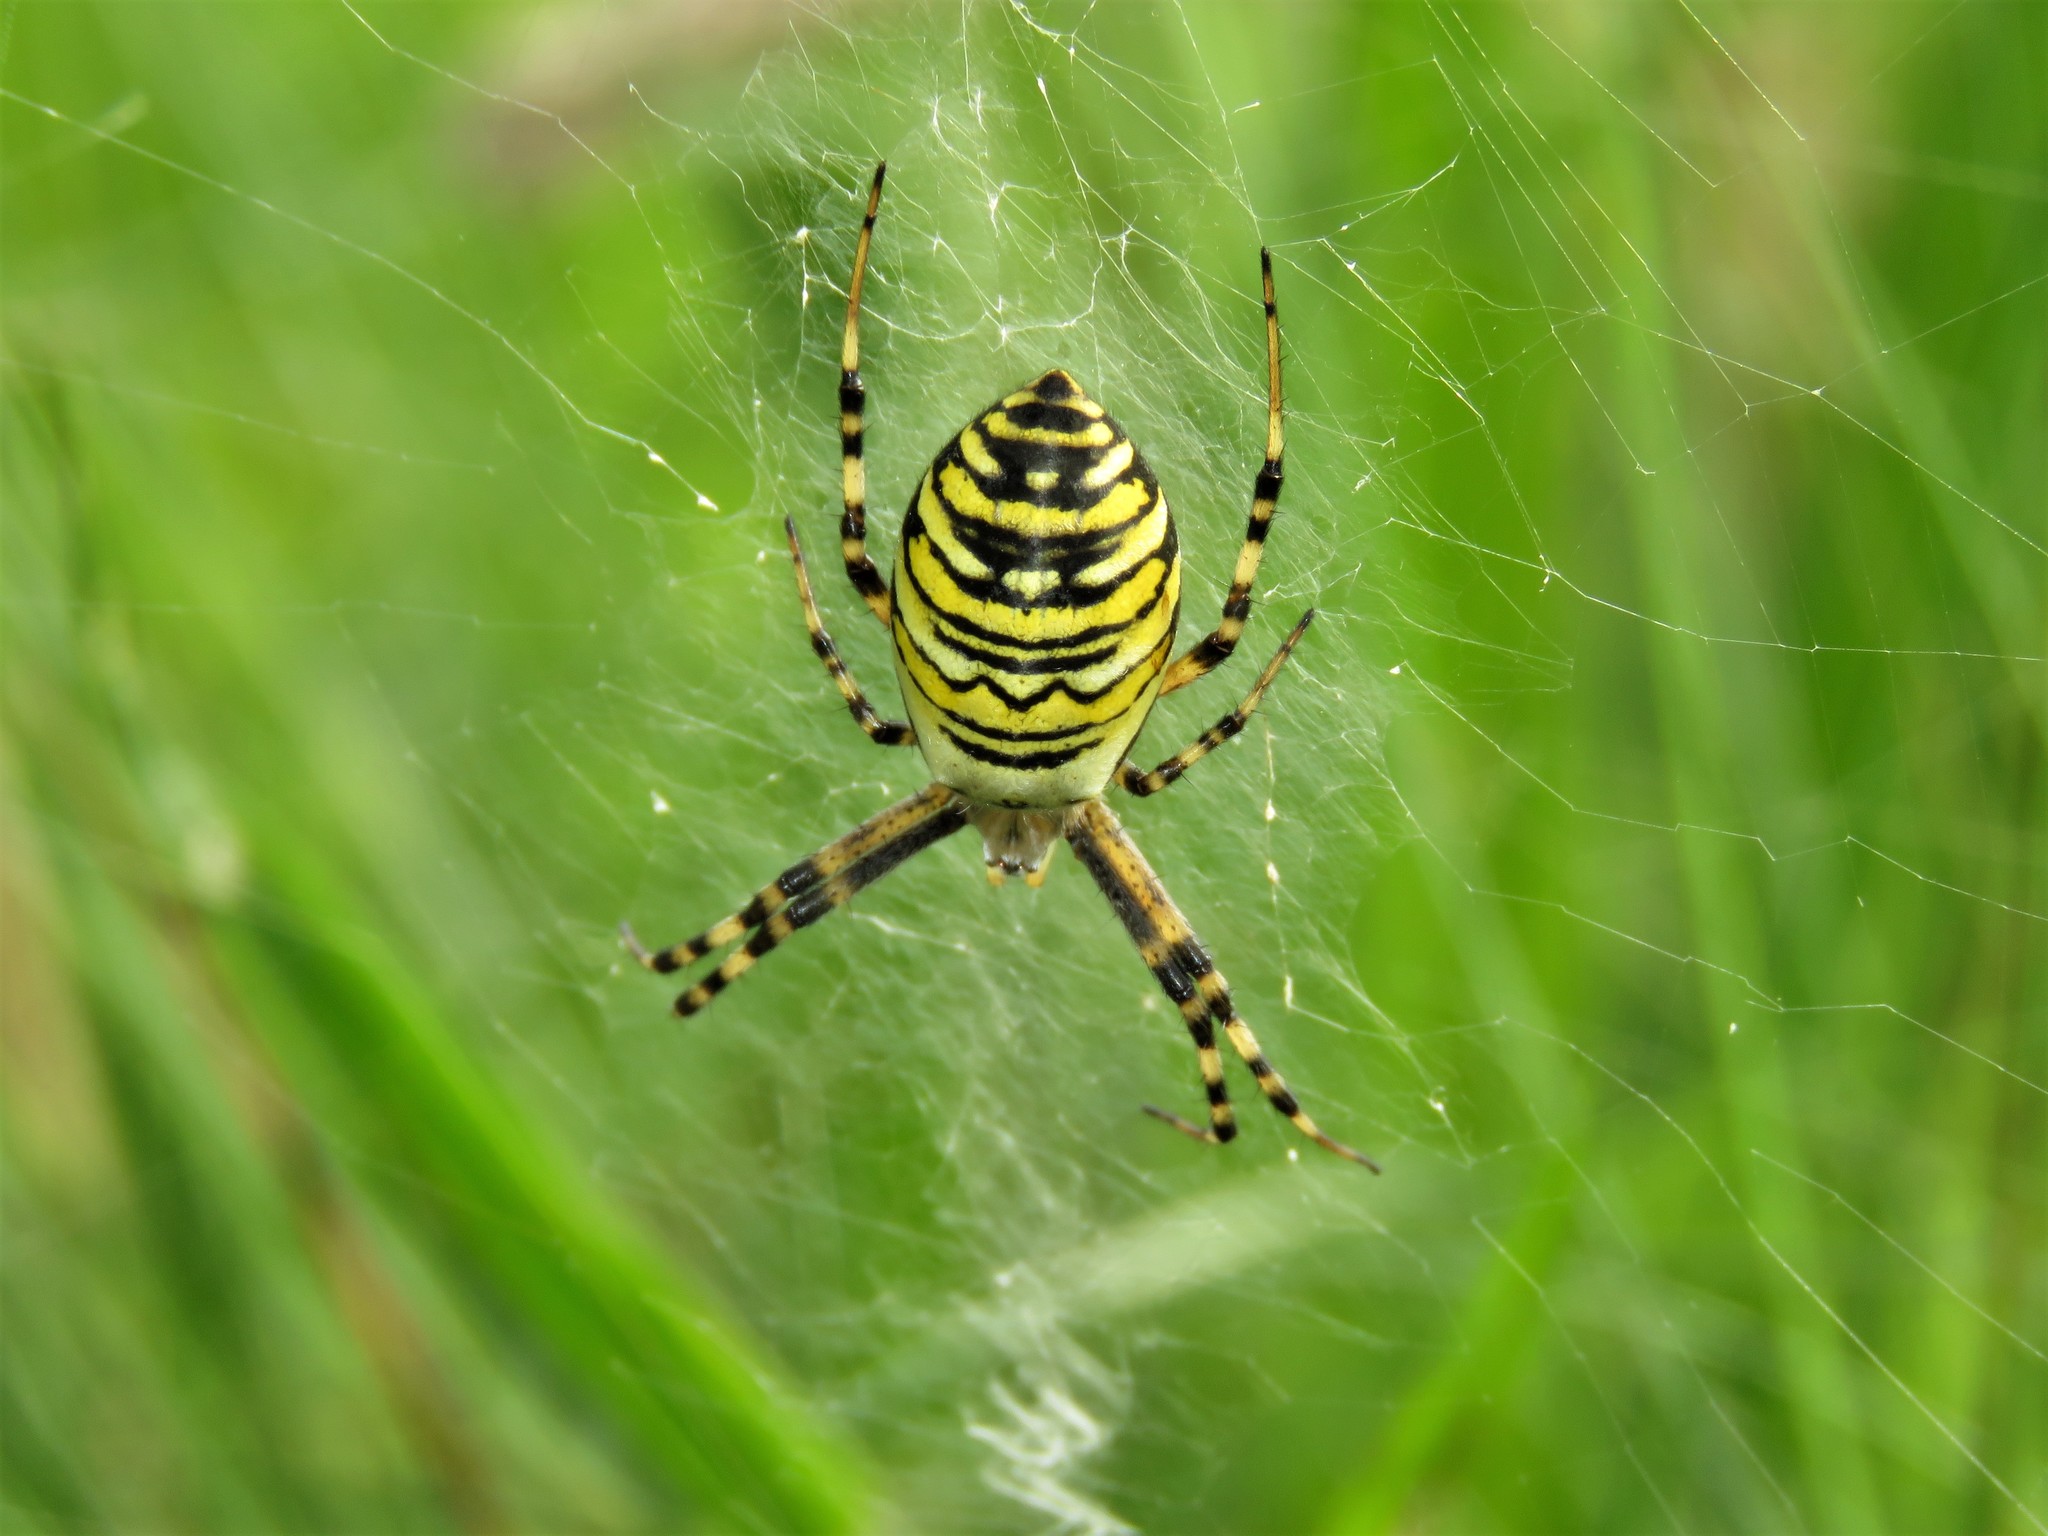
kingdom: Animalia
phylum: Arthropoda
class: Arachnida
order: Araneae
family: Araneidae
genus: Argiope
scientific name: Argiope bruennichi
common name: Wasp spider
